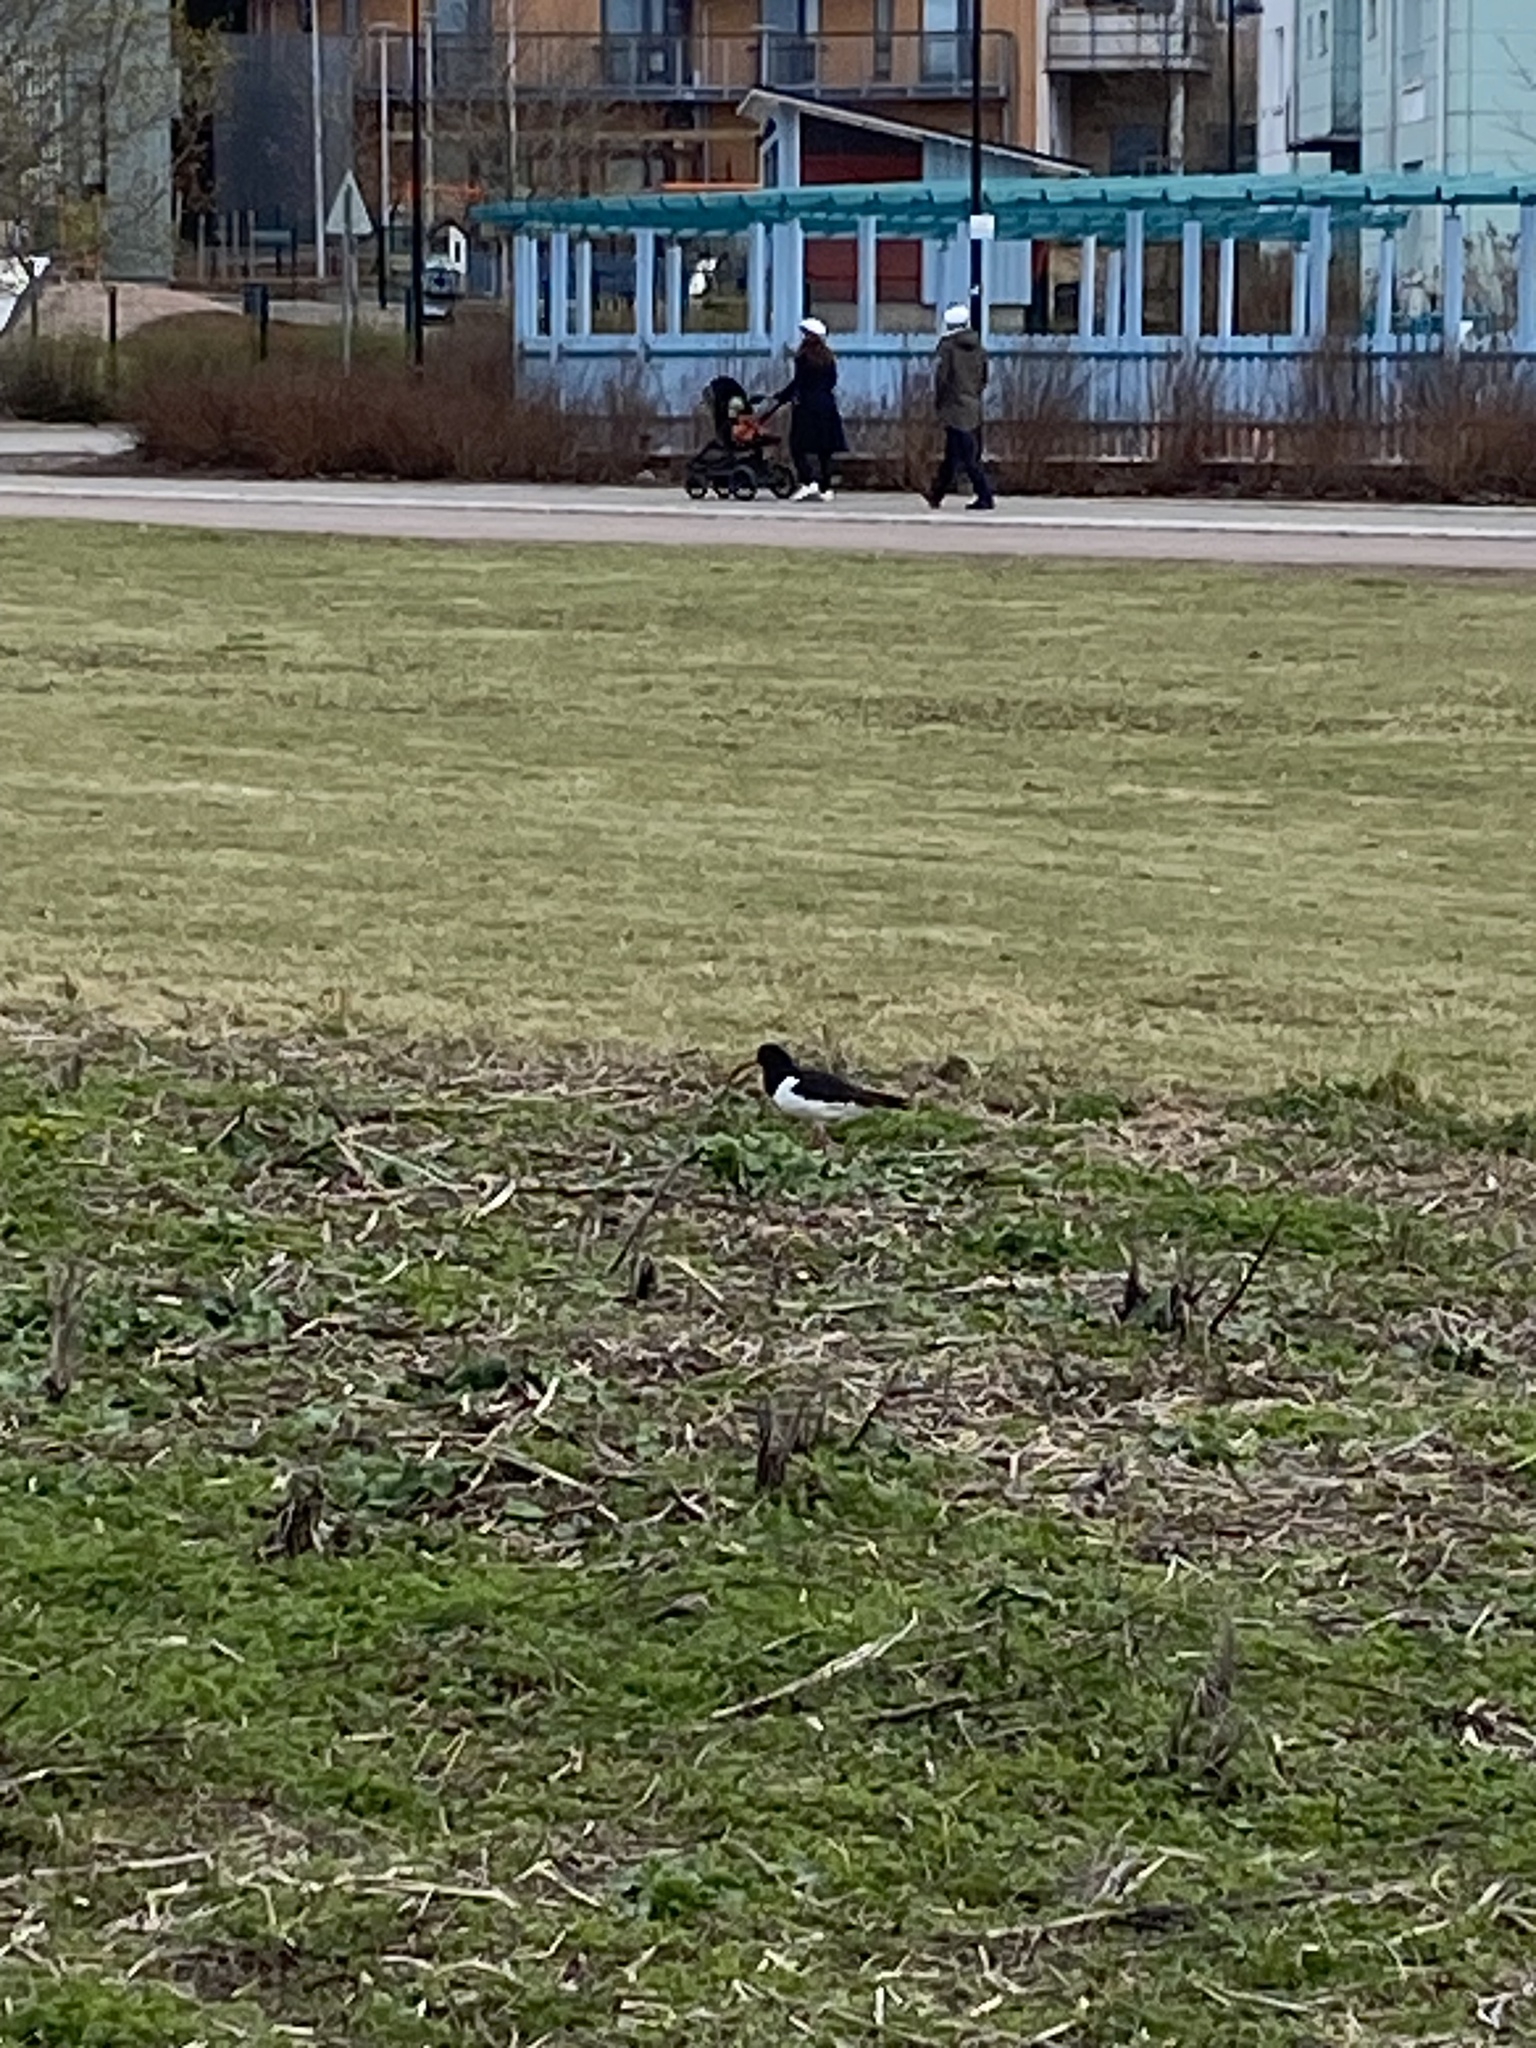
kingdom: Animalia
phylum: Chordata
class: Aves
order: Charadriiformes
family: Haematopodidae
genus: Haematopus
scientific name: Haematopus ostralegus
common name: Eurasian oystercatcher
